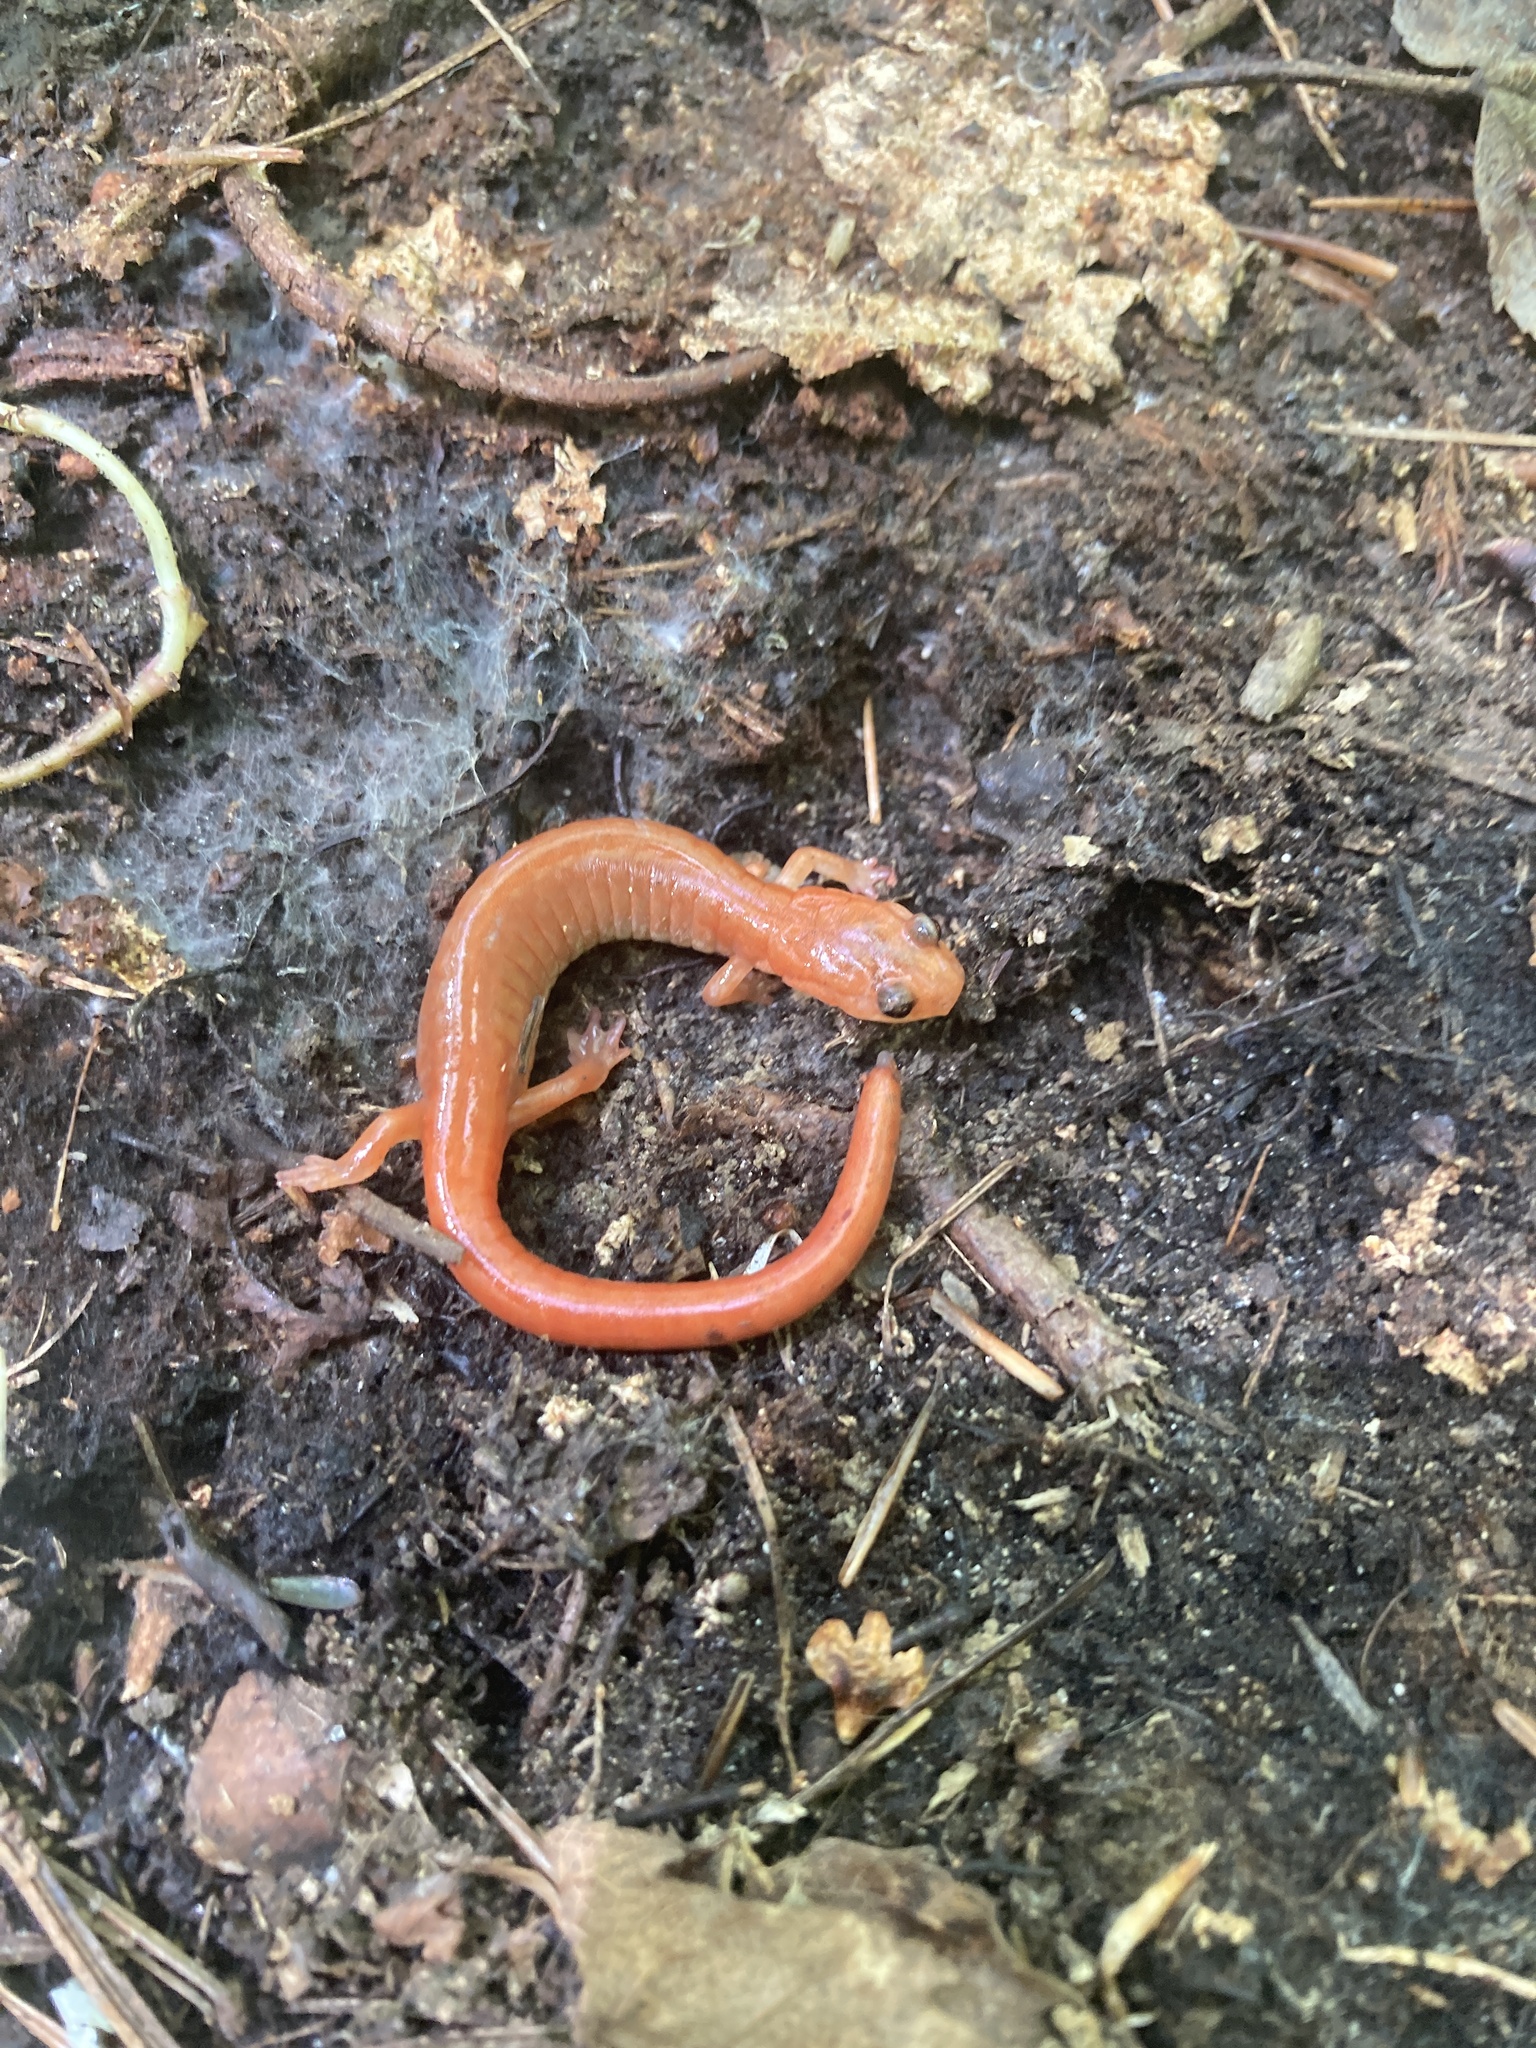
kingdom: Animalia
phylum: Chordata
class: Amphibia
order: Caudata
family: Plethodontidae
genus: Plethodon
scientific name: Plethodon cinereus
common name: Redback salamander
